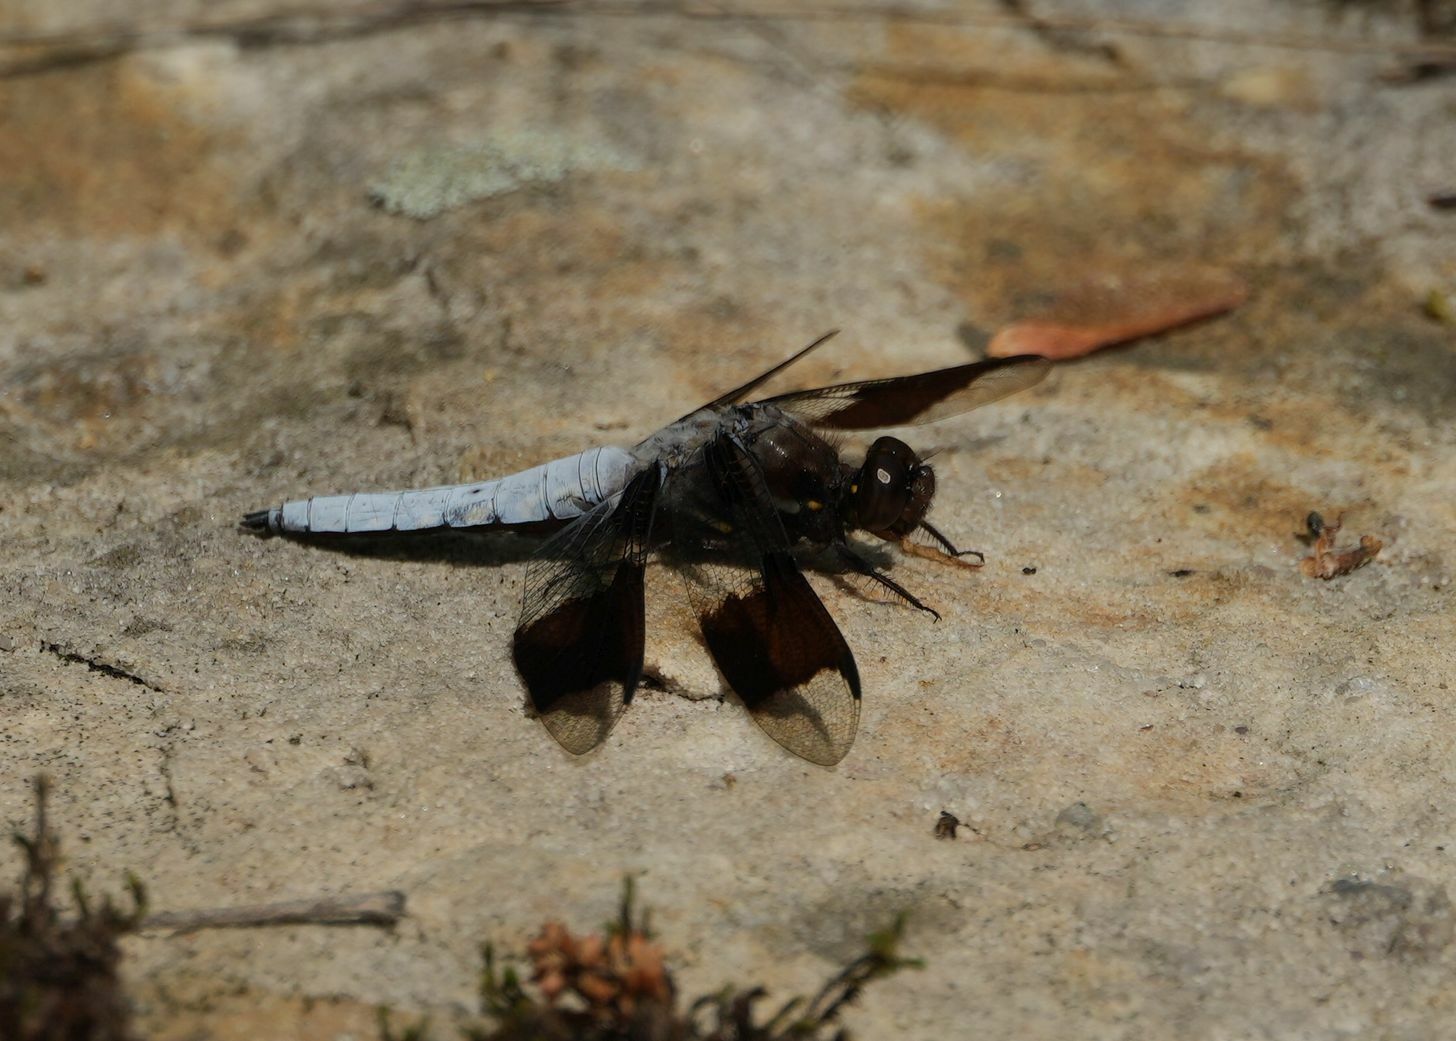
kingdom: Animalia
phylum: Arthropoda
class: Insecta
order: Odonata
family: Libellulidae
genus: Plathemis
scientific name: Plathemis lydia
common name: Common whitetail
